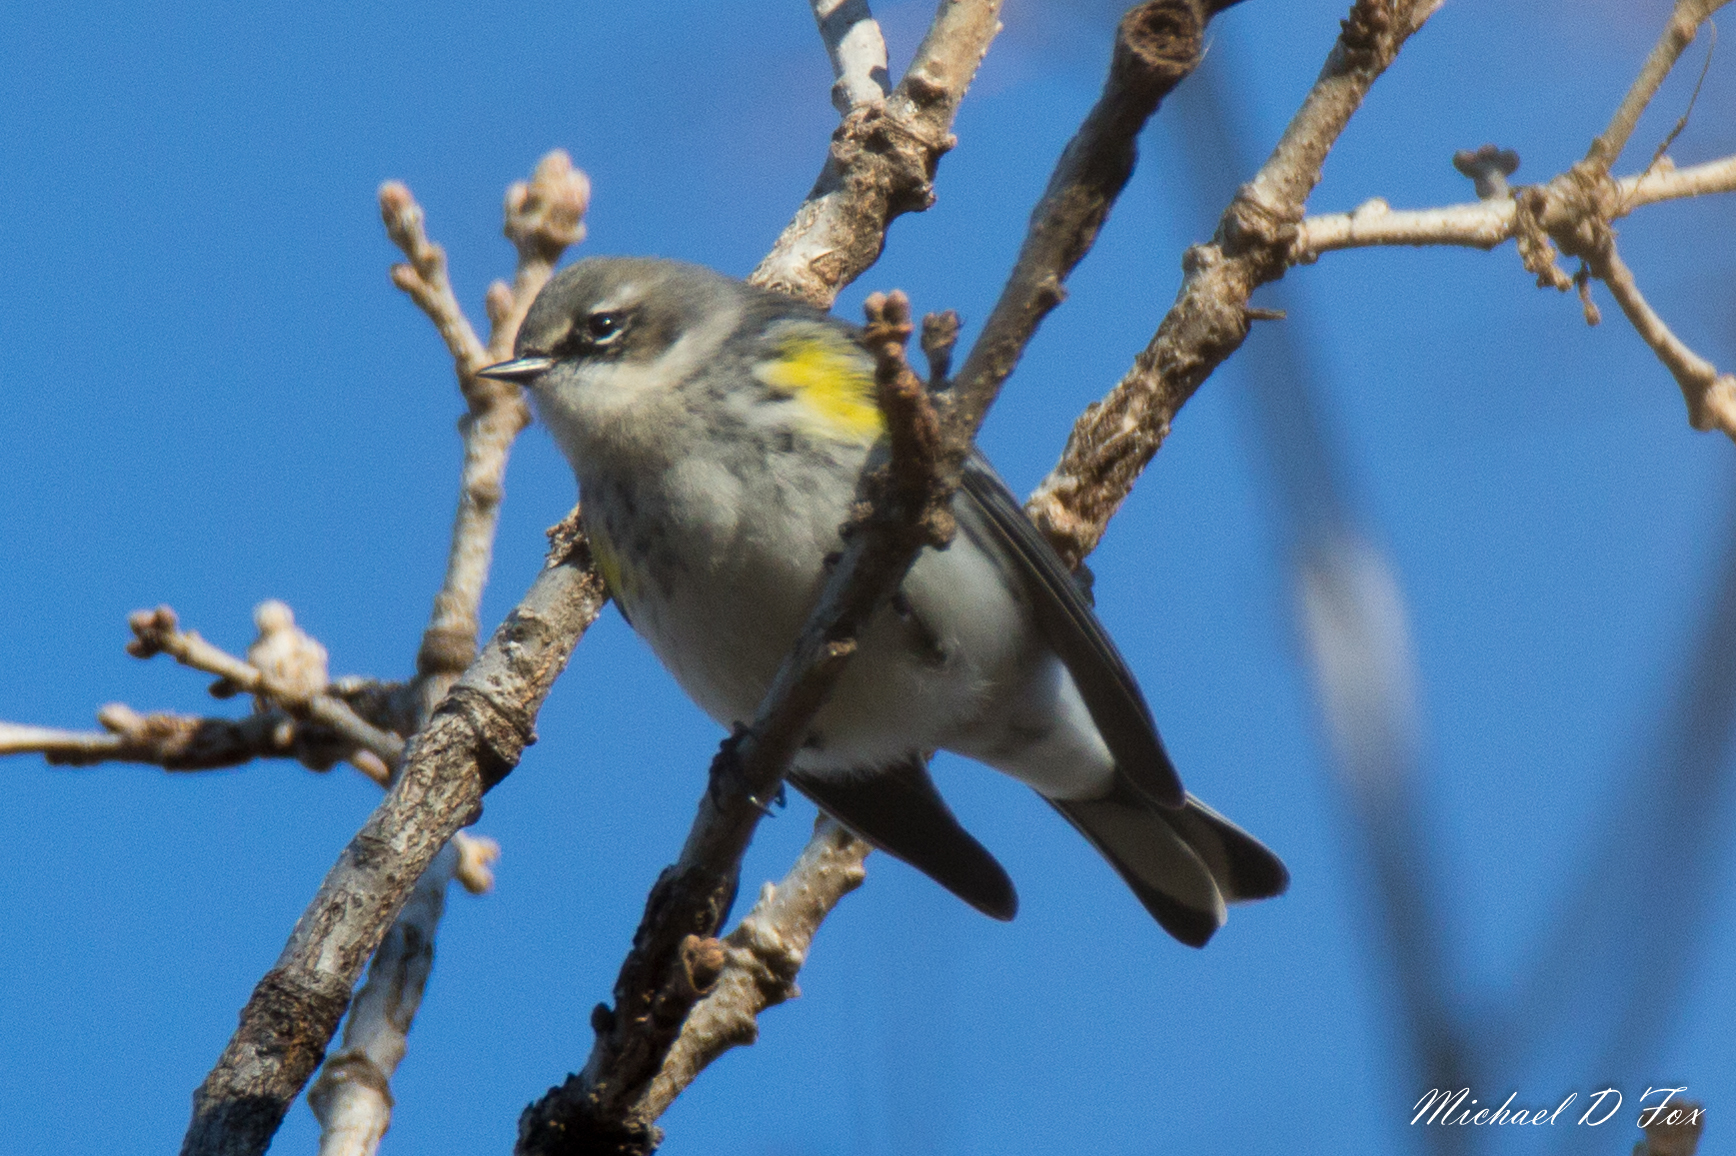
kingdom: Animalia
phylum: Chordata
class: Aves
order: Passeriformes
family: Parulidae
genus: Setophaga
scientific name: Setophaga coronata
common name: Myrtle warbler
